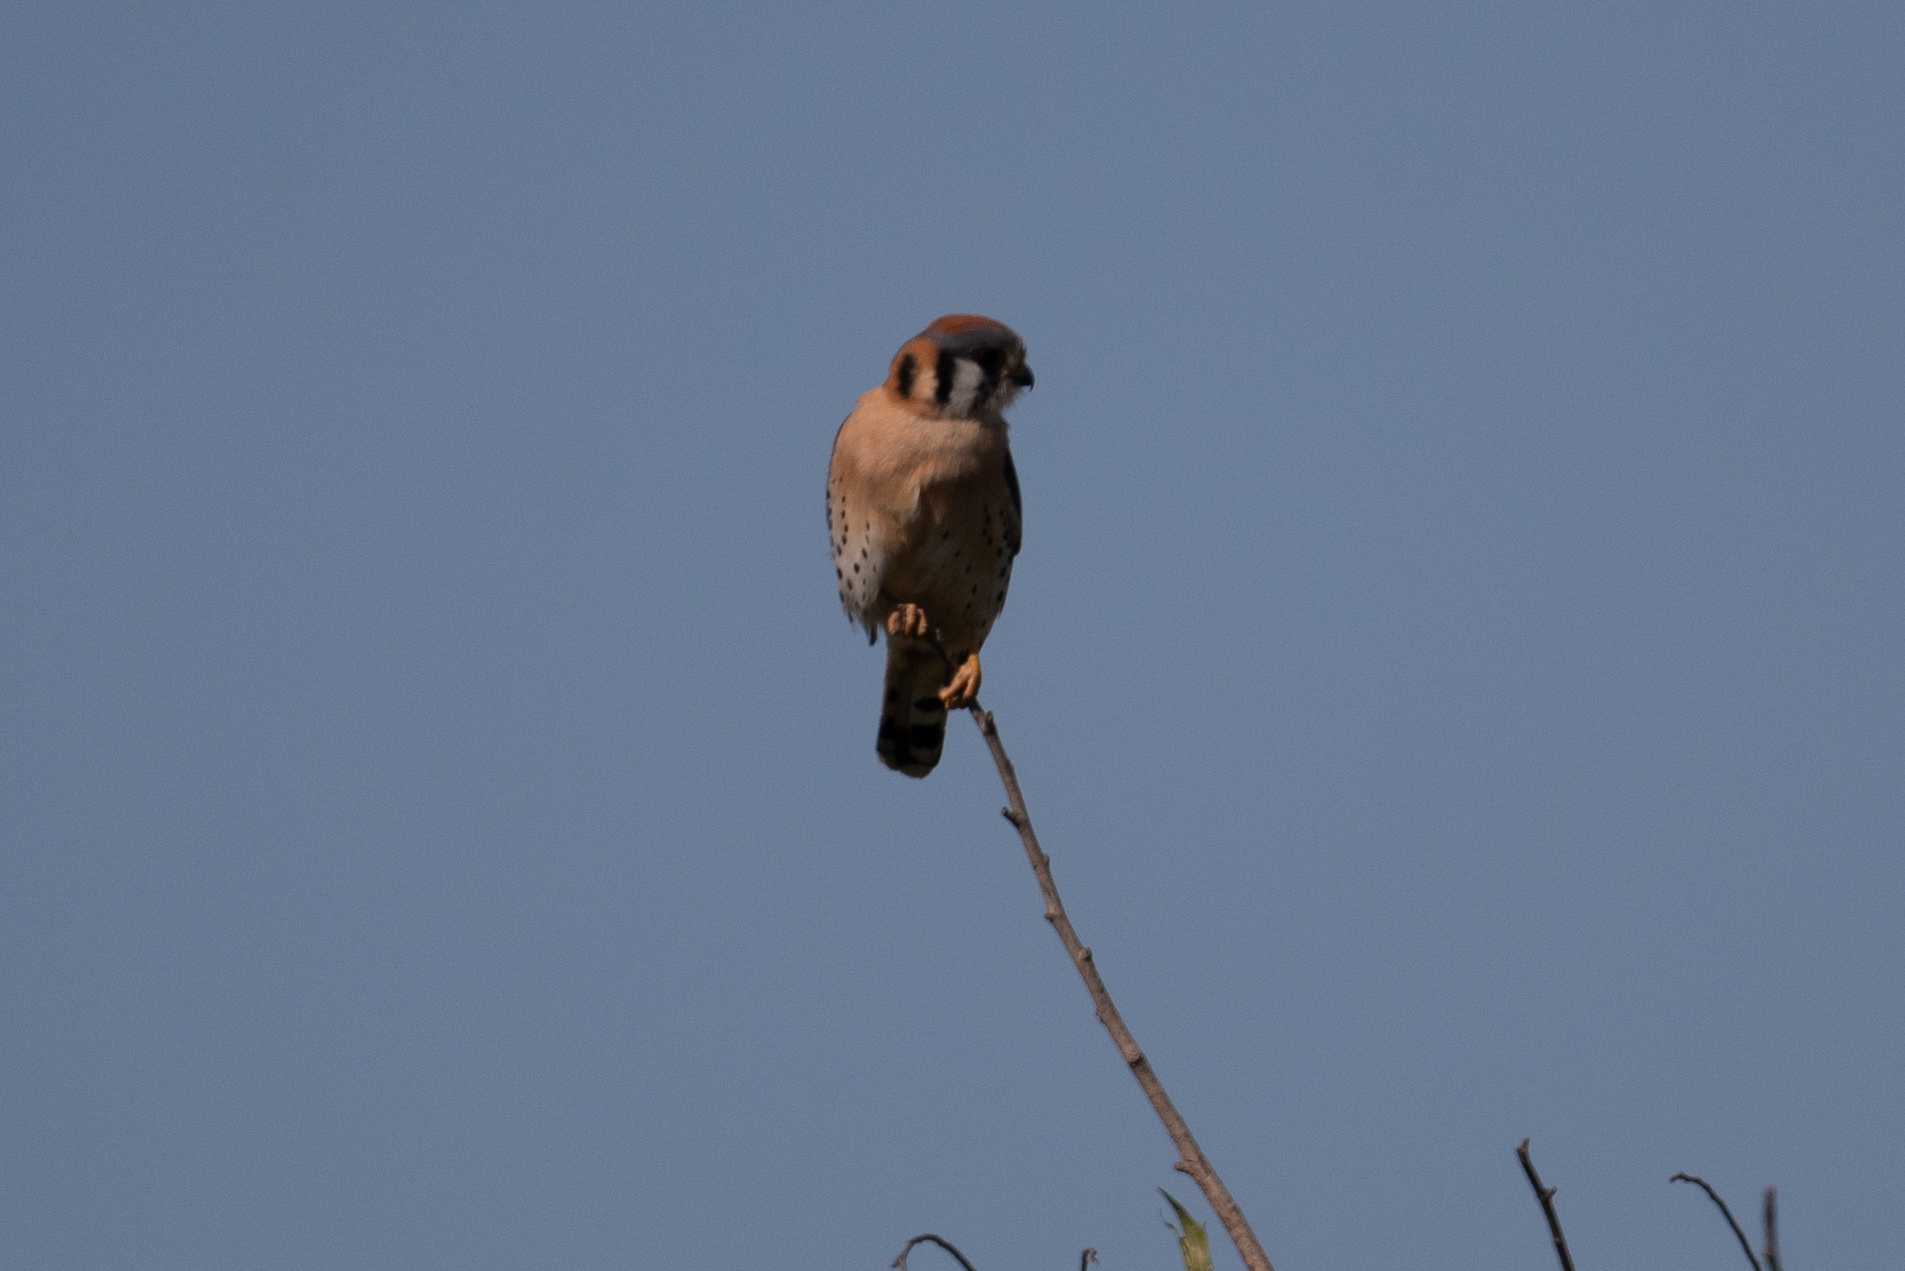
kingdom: Animalia
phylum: Chordata
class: Aves
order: Falconiformes
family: Falconidae
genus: Falco
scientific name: Falco sparverius
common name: American kestrel
